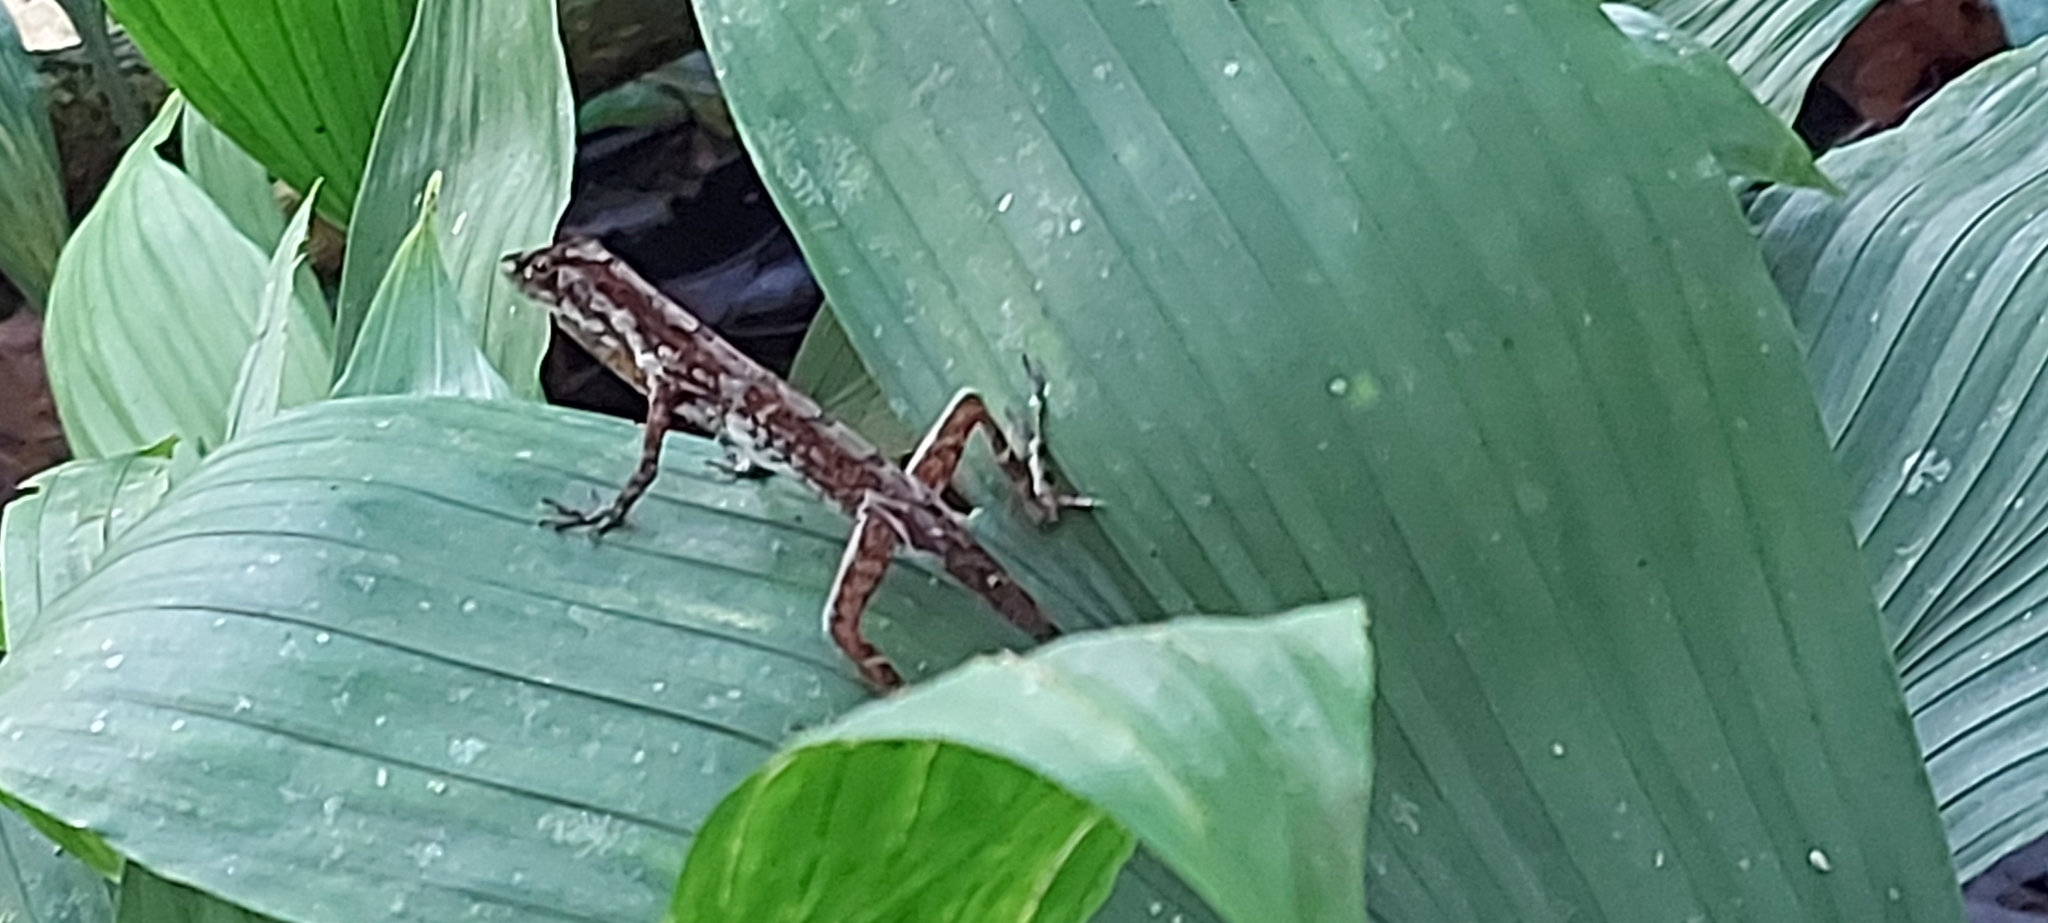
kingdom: Animalia
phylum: Chordata
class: Squamata
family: Dactyloidae
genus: Anolis
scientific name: Anolis limifrons
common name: Border anole
